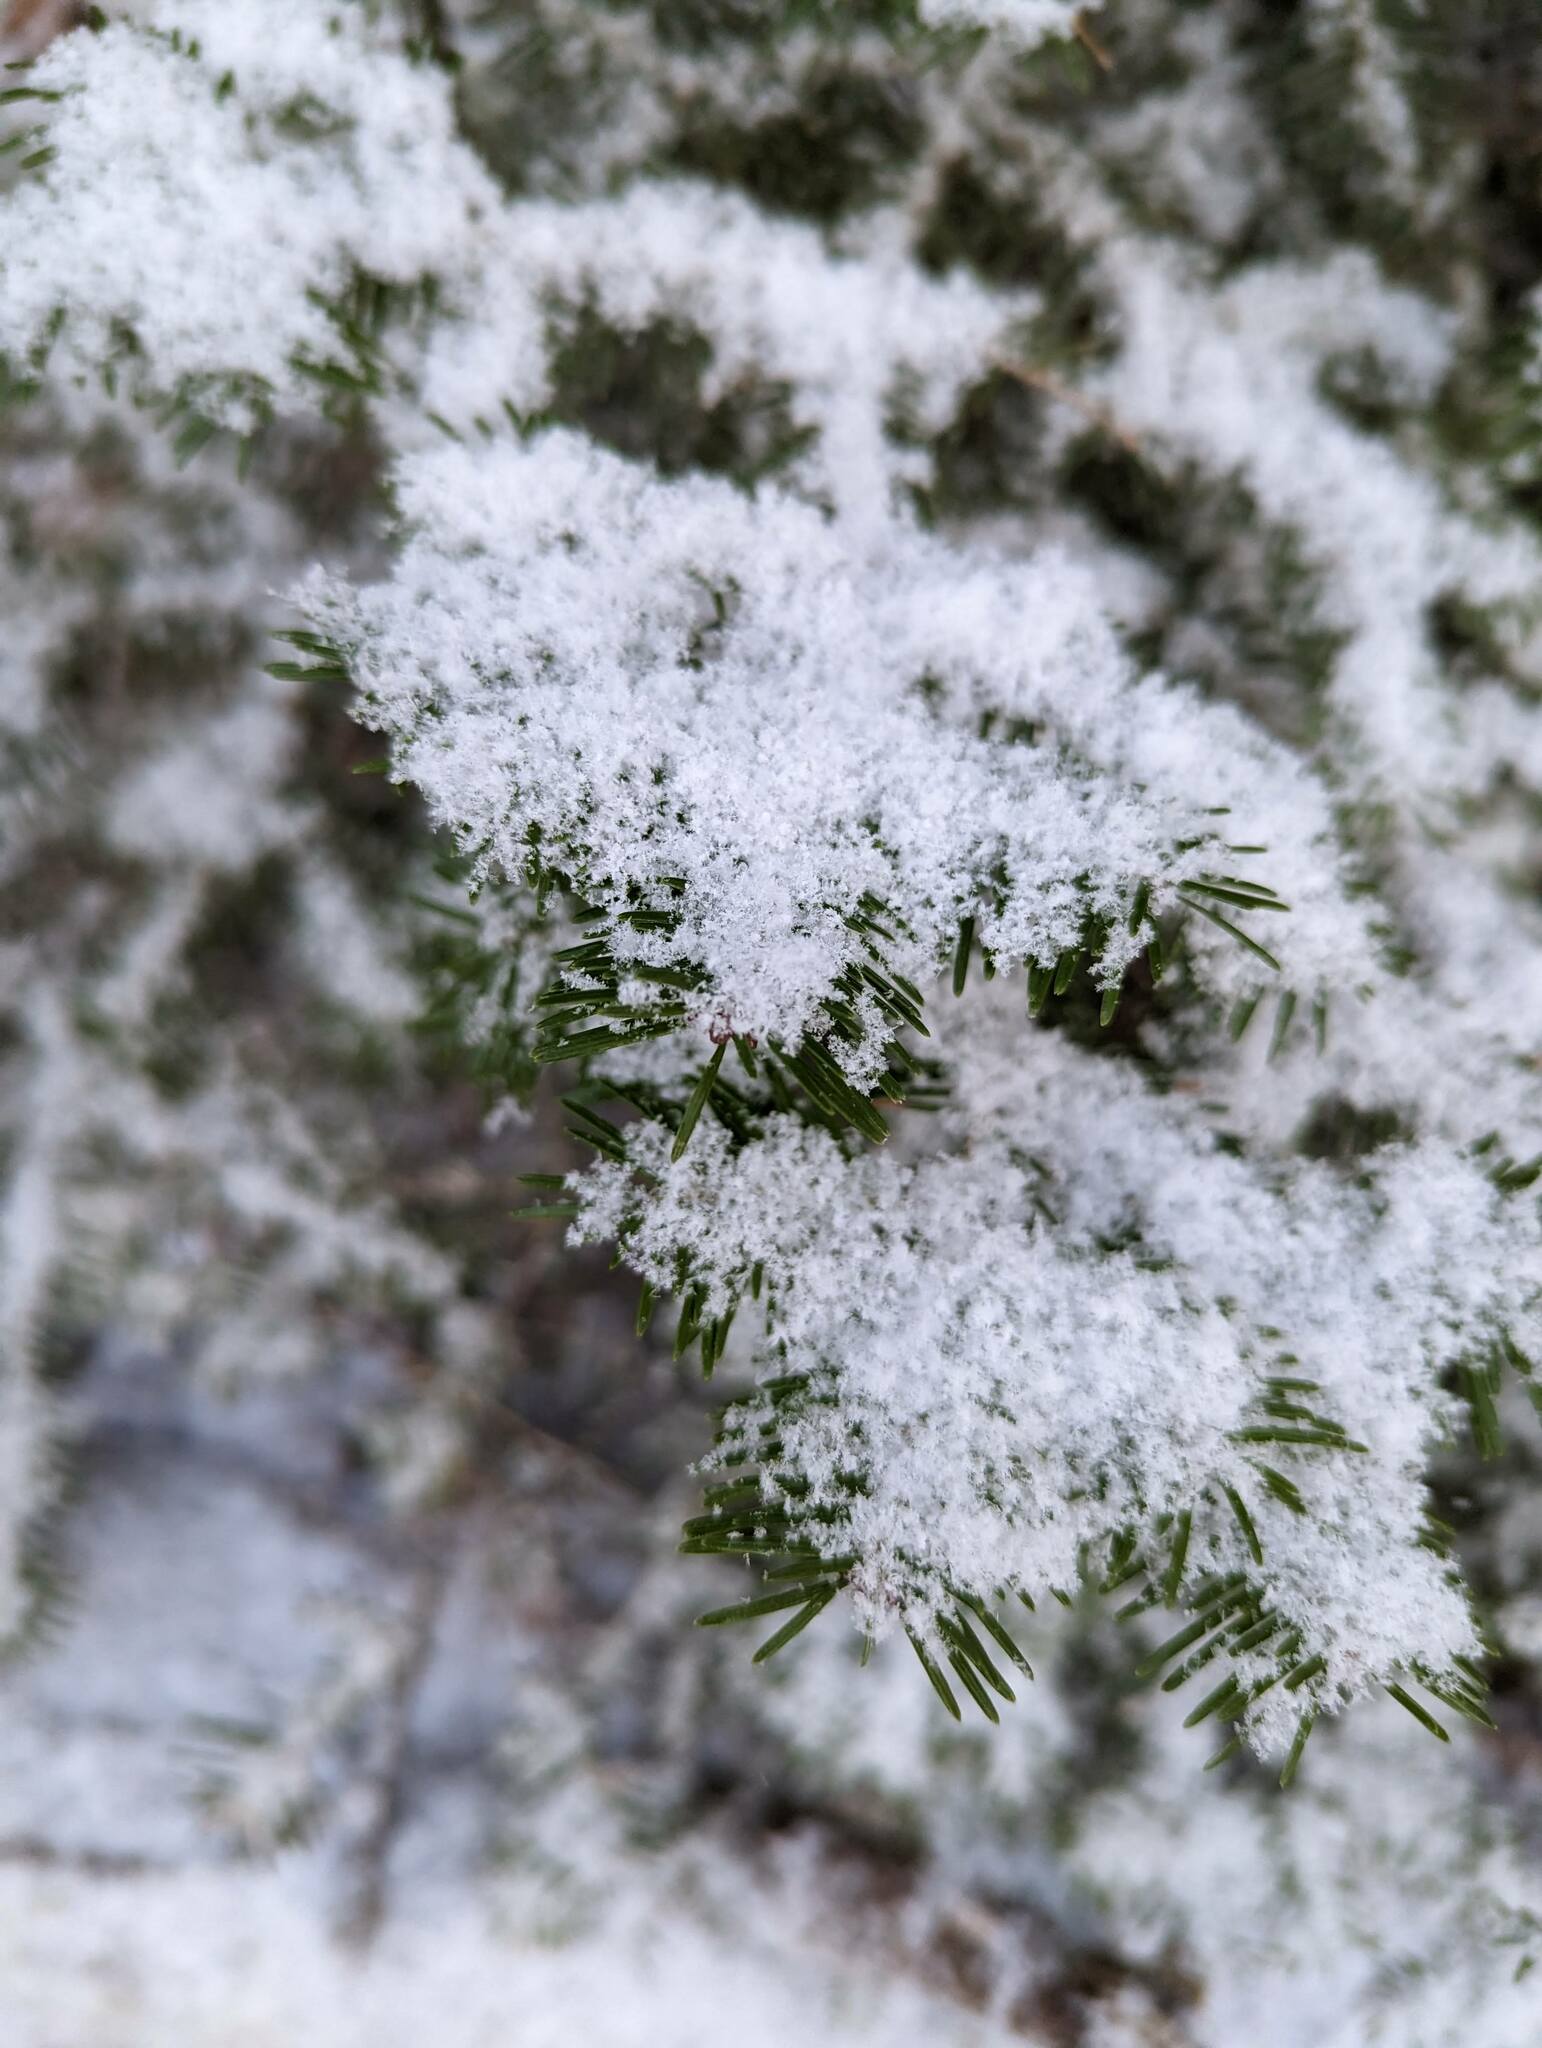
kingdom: Plantae
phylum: Tracheophyta
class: Pinopsida
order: Pinales
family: Pinaceae
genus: Abies
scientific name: Abies balsamea
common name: Balsam fir
